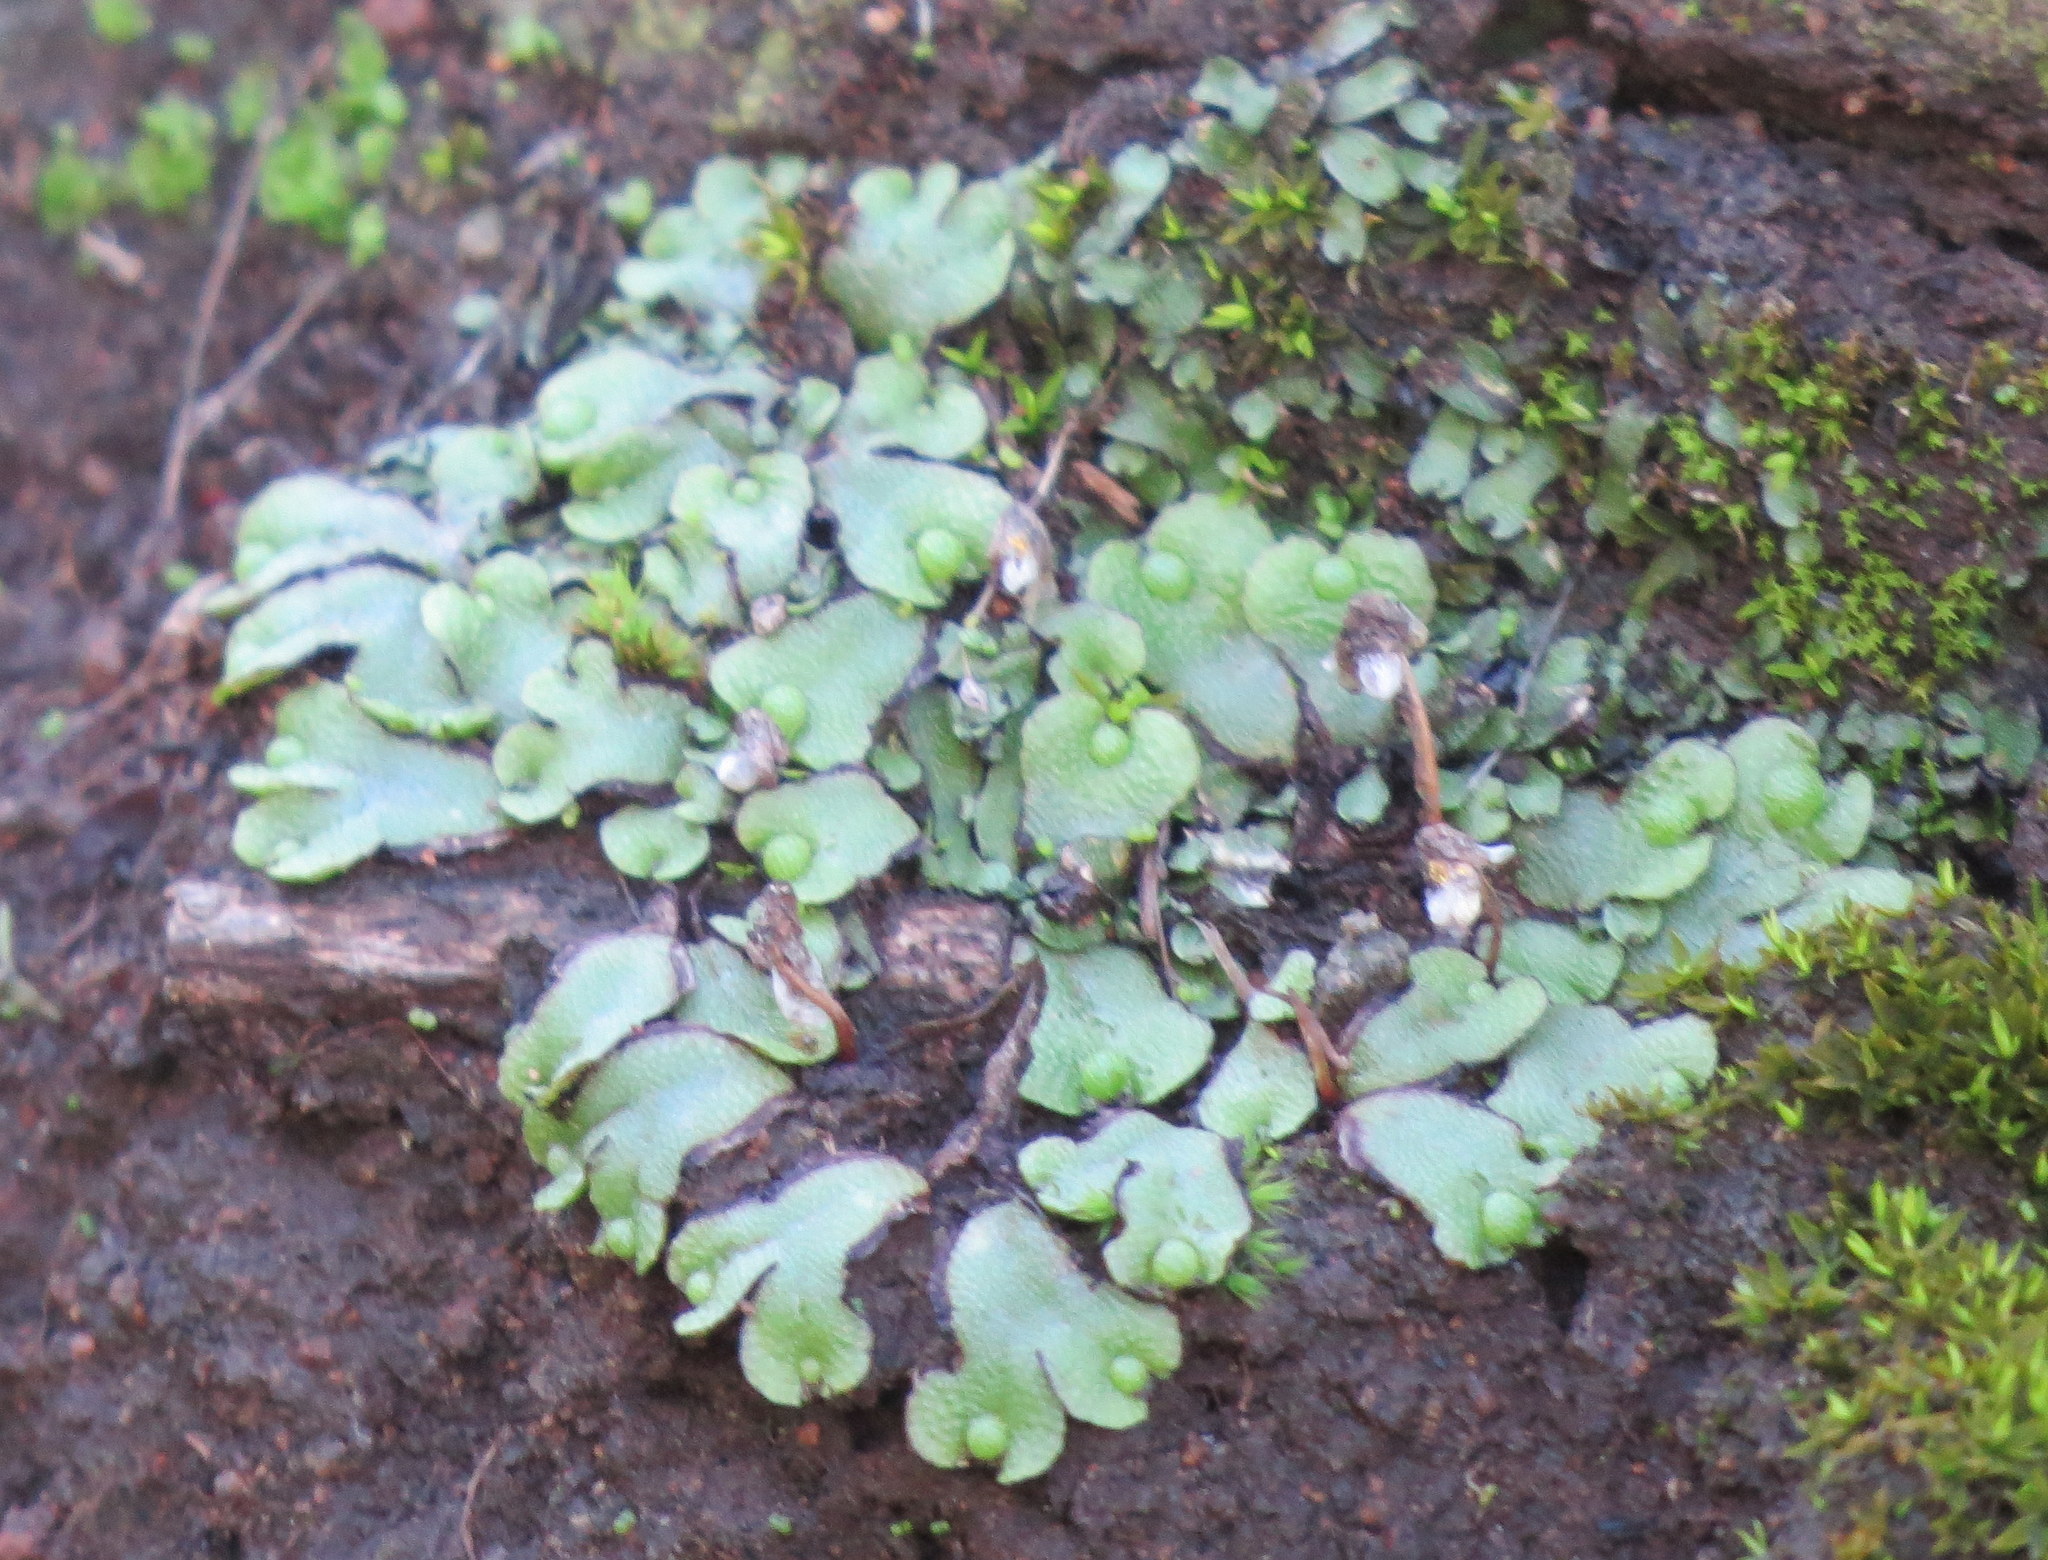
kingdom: Plantae
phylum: Marchantiophyta
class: Marchantiopsida
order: Marchantiales
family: Aytoniaceae
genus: Asterella
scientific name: Asterella californica
